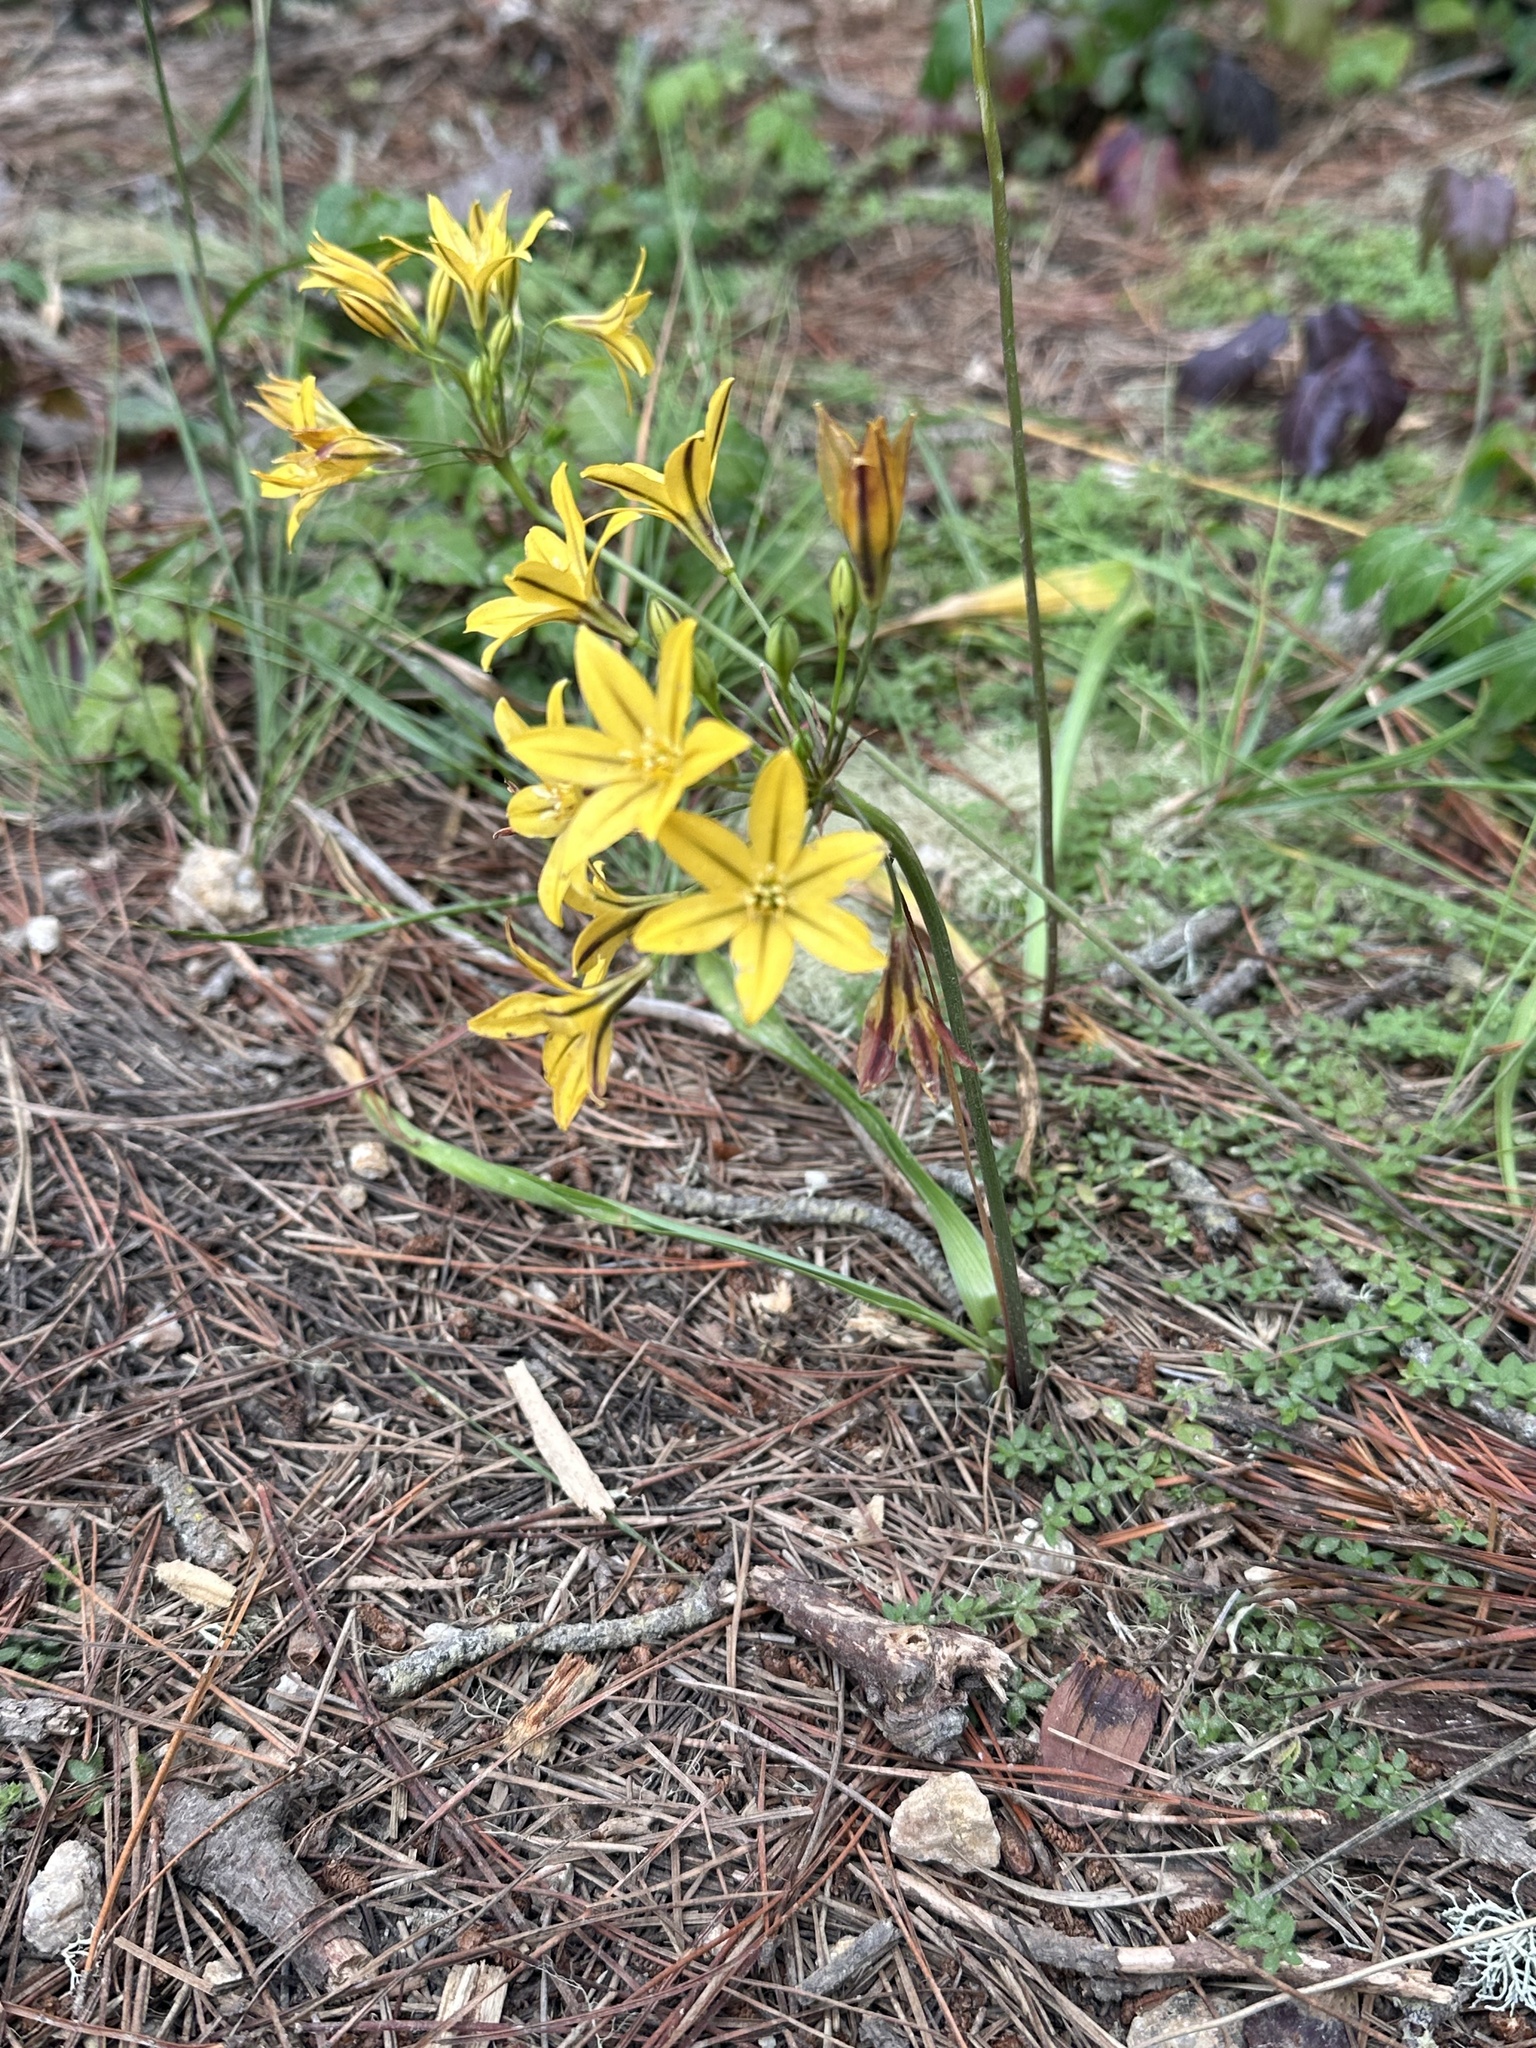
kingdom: Plantae
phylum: Tracheophyta
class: Liliopsida
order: Asparagales
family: Asparagaceae
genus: Triteleia
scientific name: Triteleia ixioides
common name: Yellow-brodiaea
